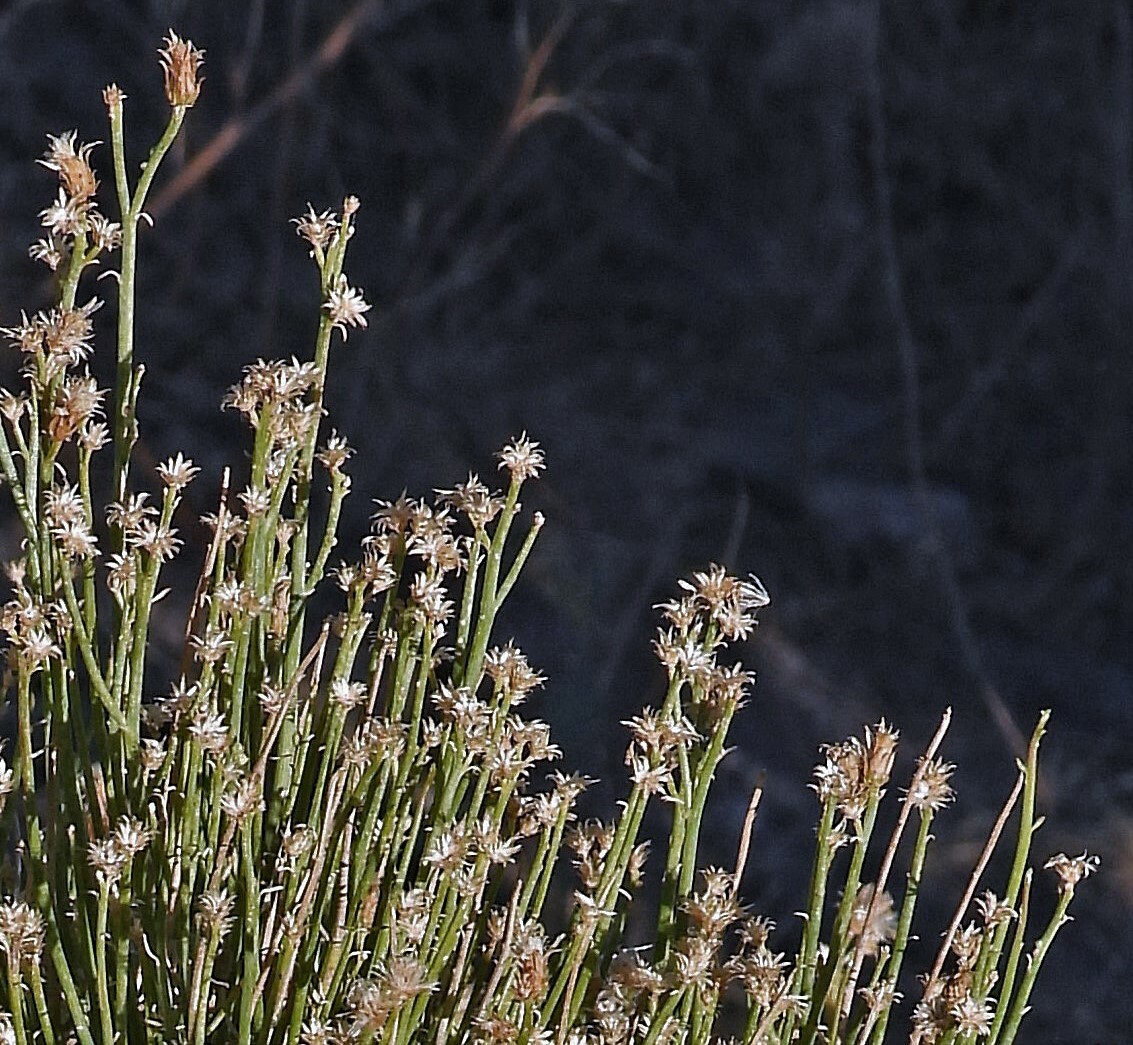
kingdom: Plantae
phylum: Tracheophyta
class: Magnoliopsida
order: Asterales
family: Asteraceae
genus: Pseudobaccharis
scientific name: Pseudobaccharis spartioides
